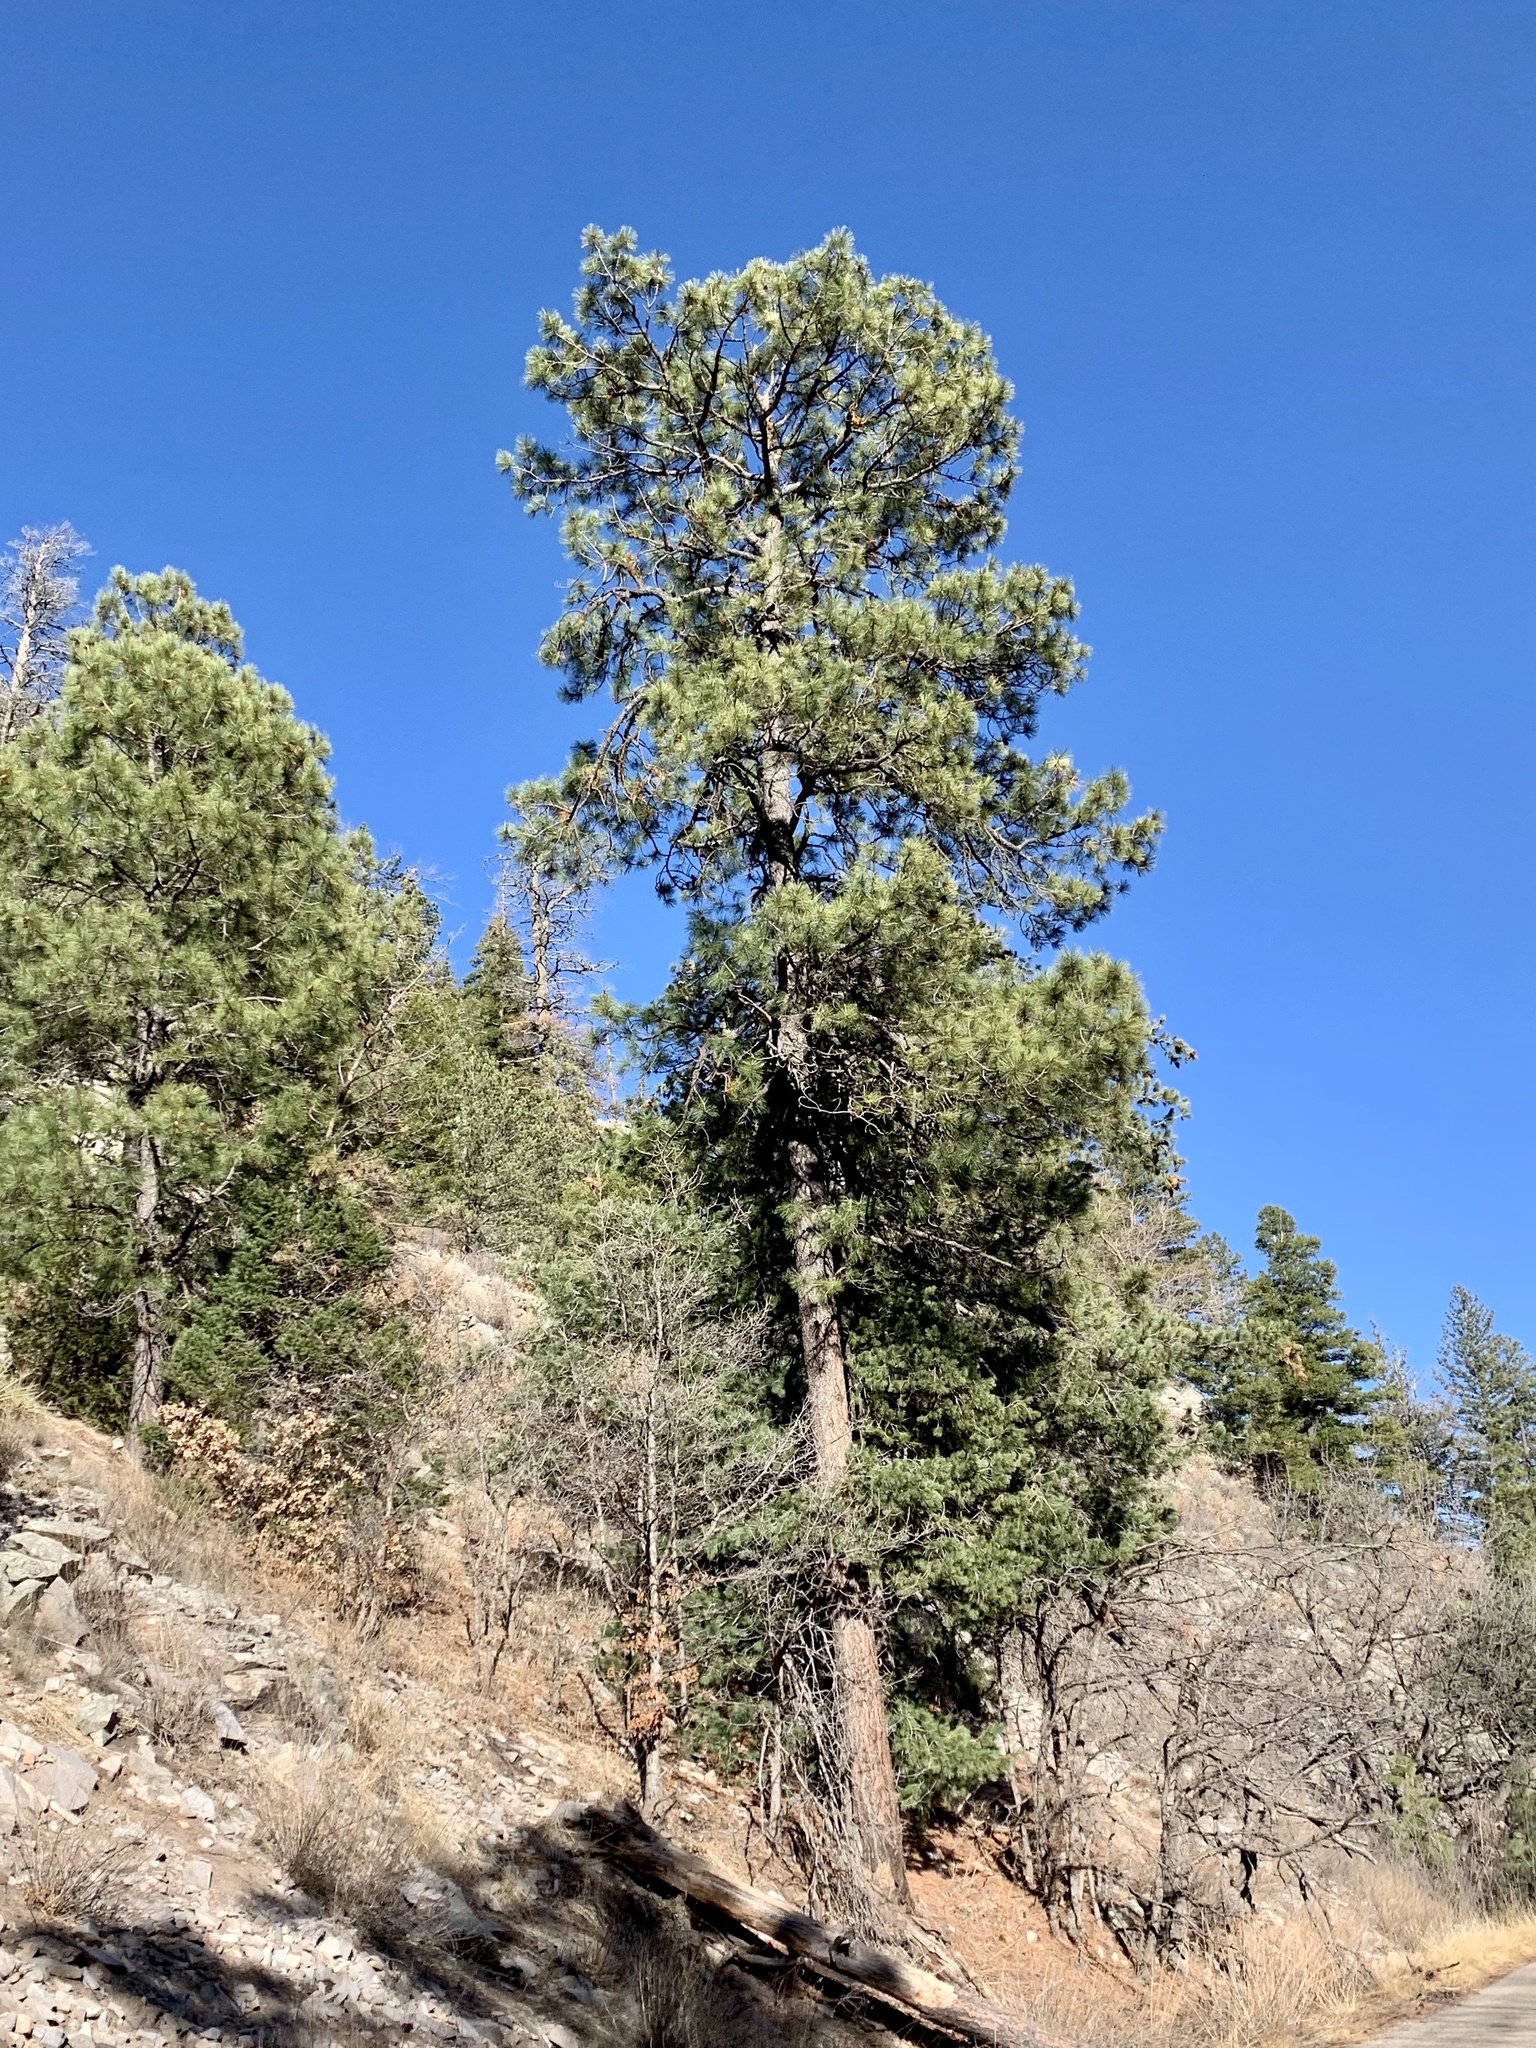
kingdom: Plantae
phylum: Tracheophyta
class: Pinopsida
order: Pinales
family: Pinaceae
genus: Pinus
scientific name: Pinus ponderosa
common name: Western yellow-pine
